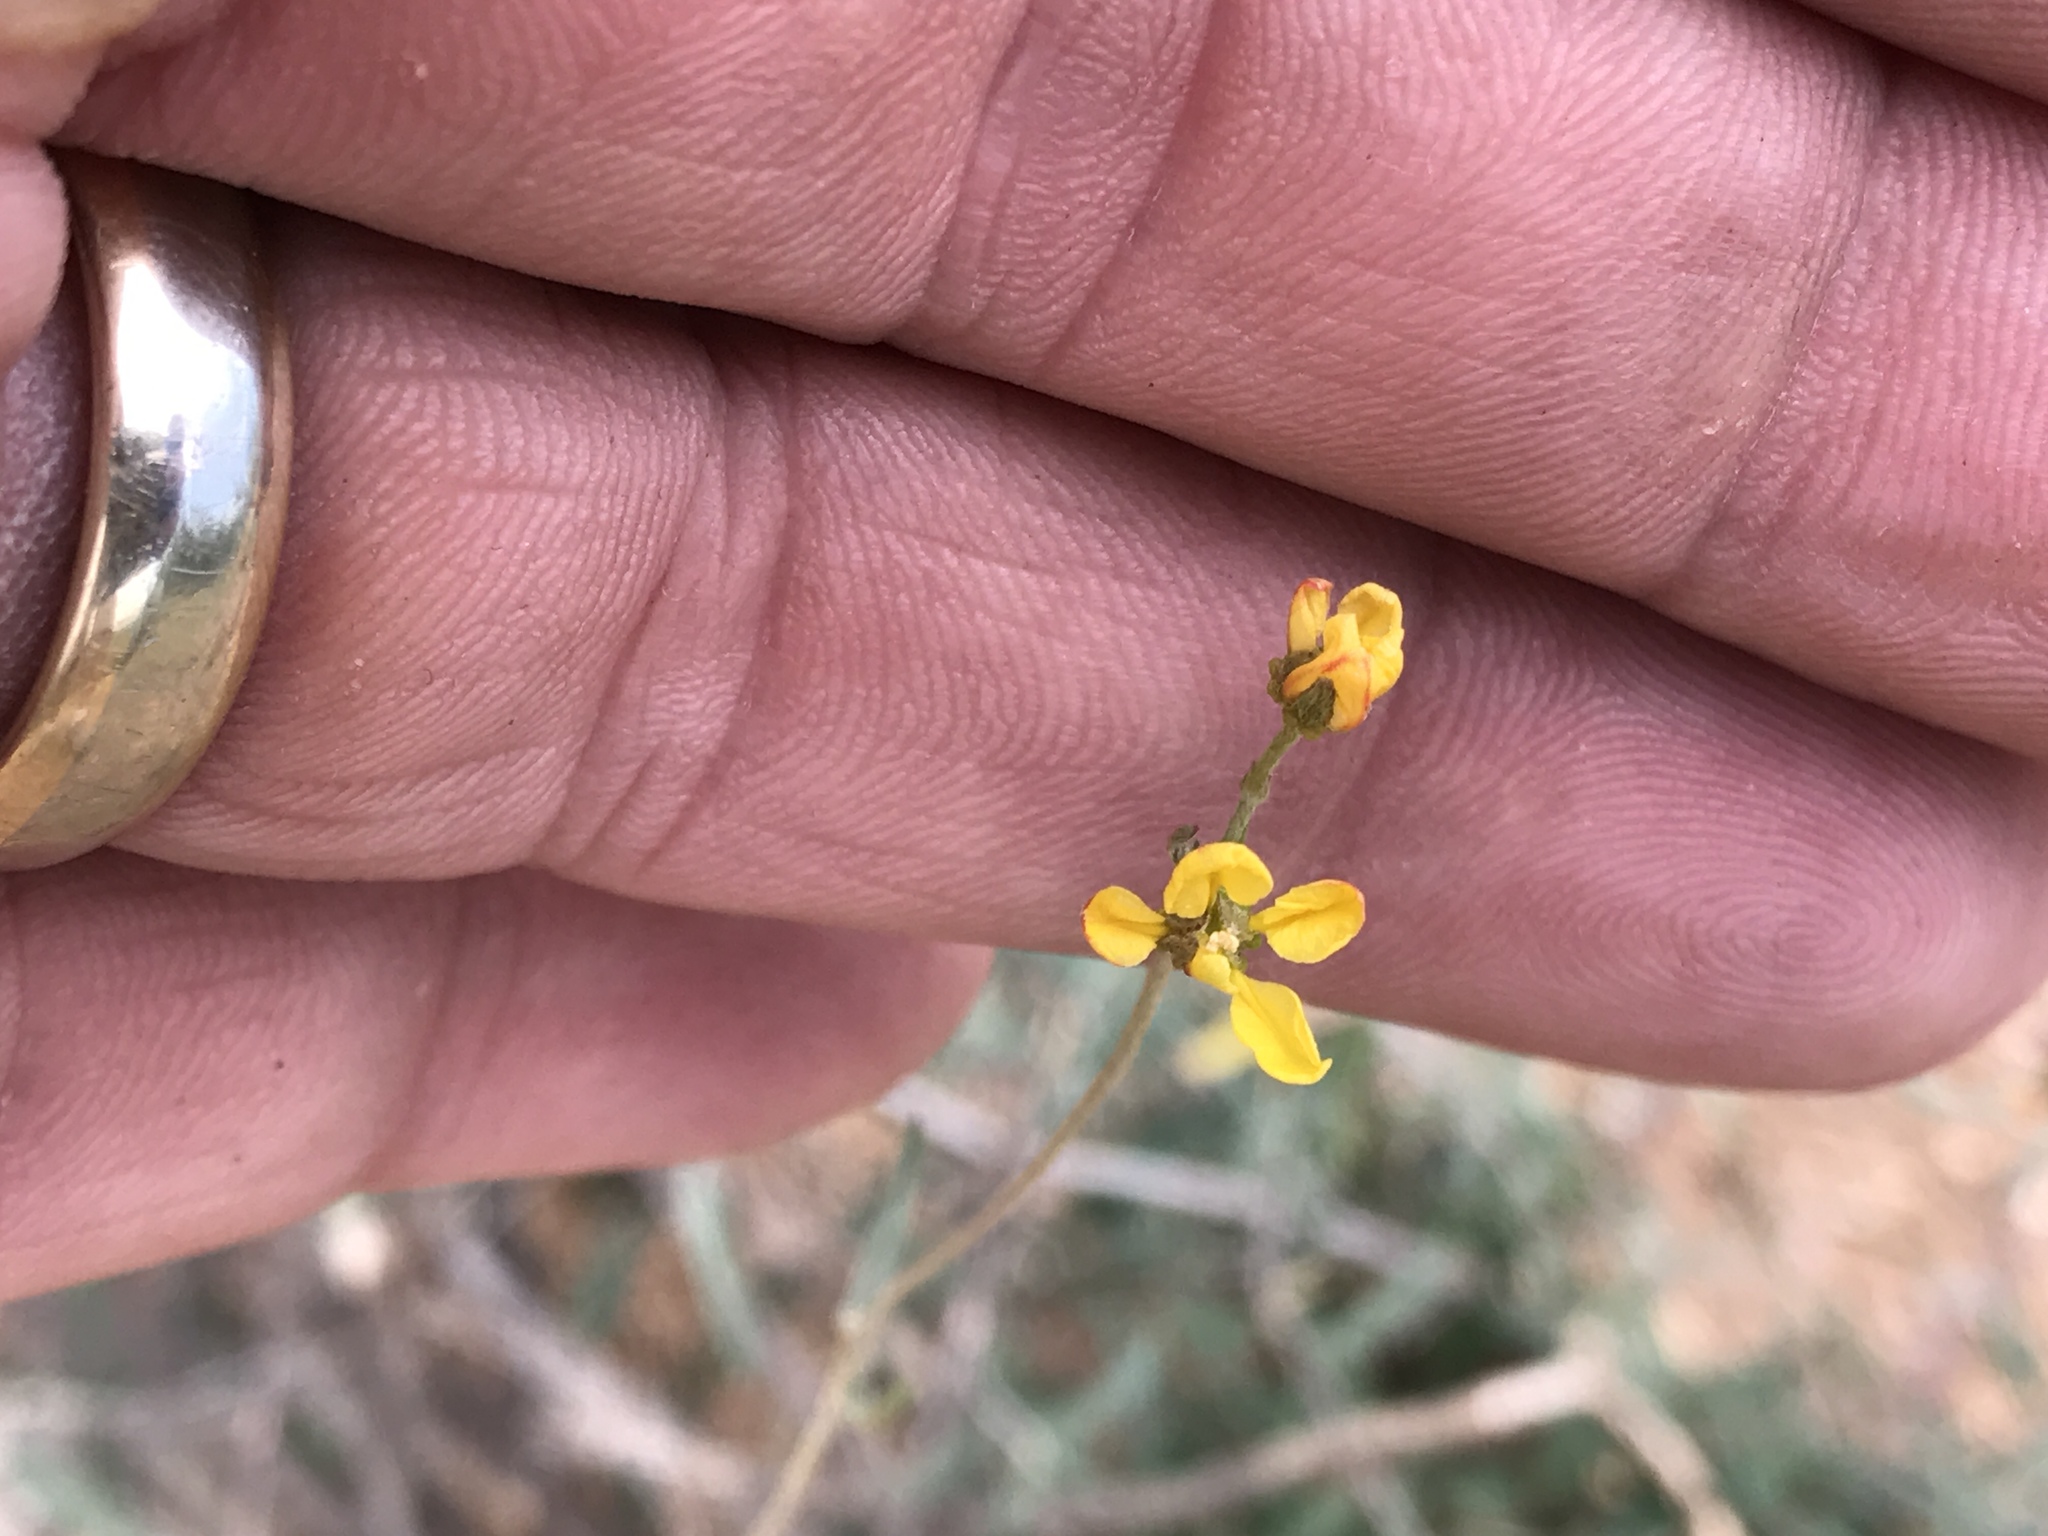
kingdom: Plantae
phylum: Tracheophyta
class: Magnoliopsida
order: Malpighiales
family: Malpighiaceae
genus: Cottsia
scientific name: Cottsia gracilis
